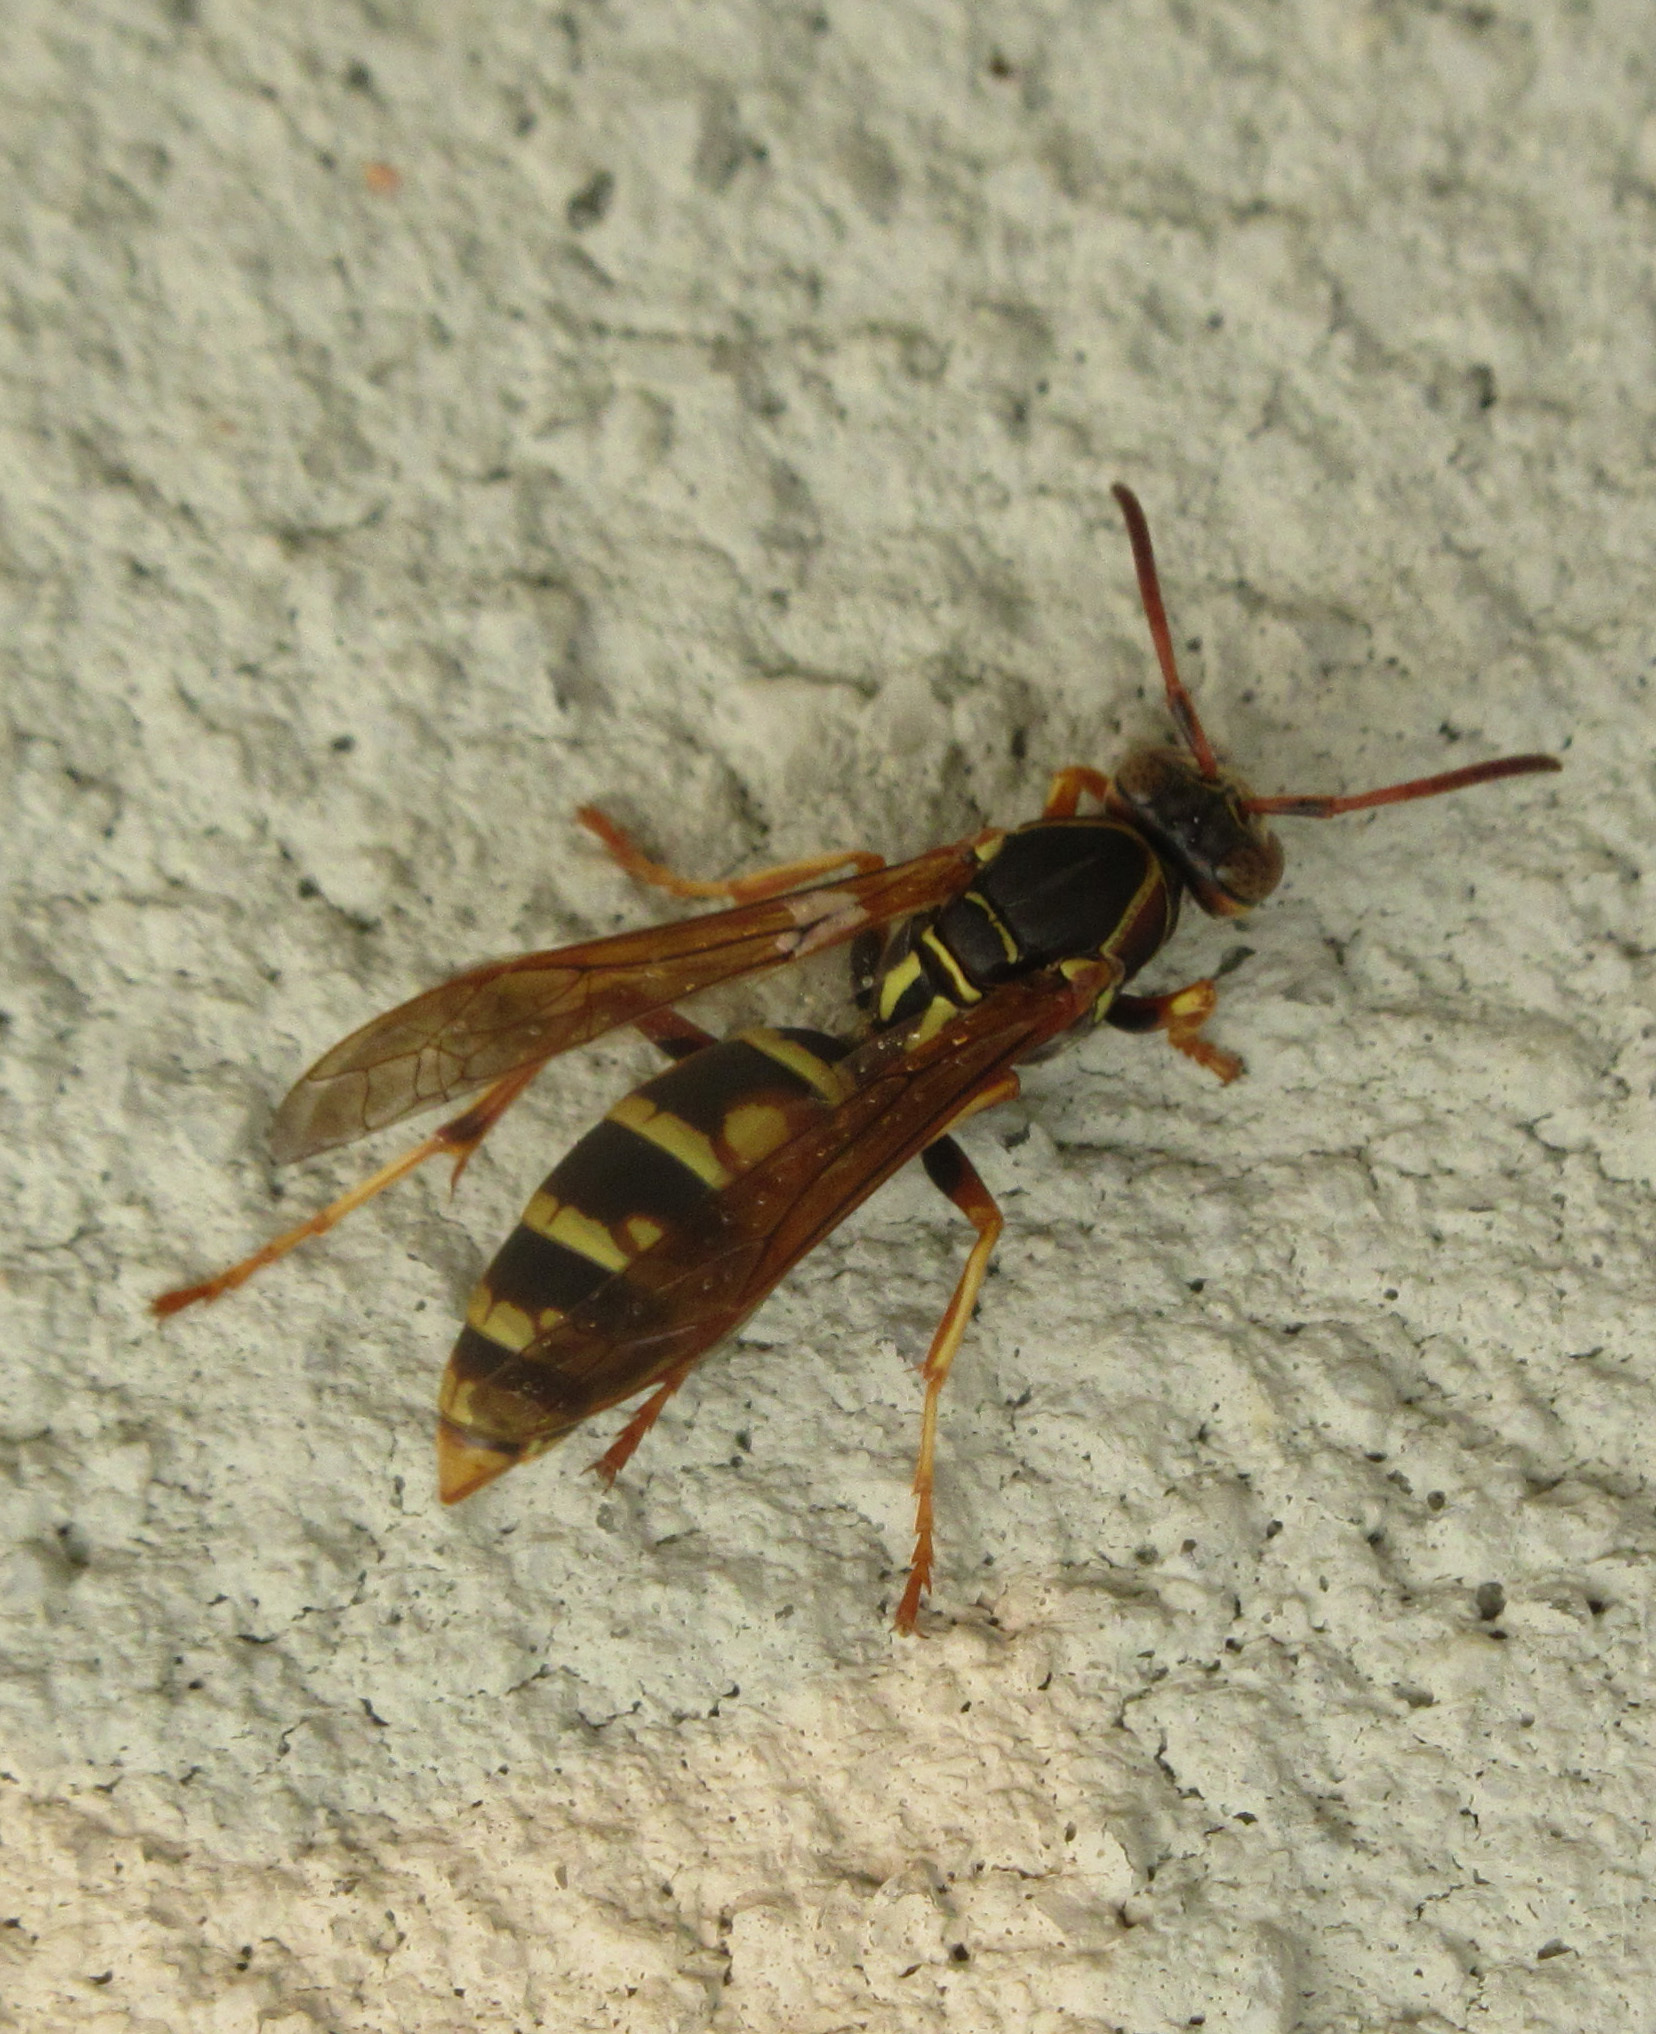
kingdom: Animalia
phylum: Arthropoda
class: Insecta
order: Hymenoptera
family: Eumenidae
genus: Polistes
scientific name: Polistes aurifer
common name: Paper wasp
